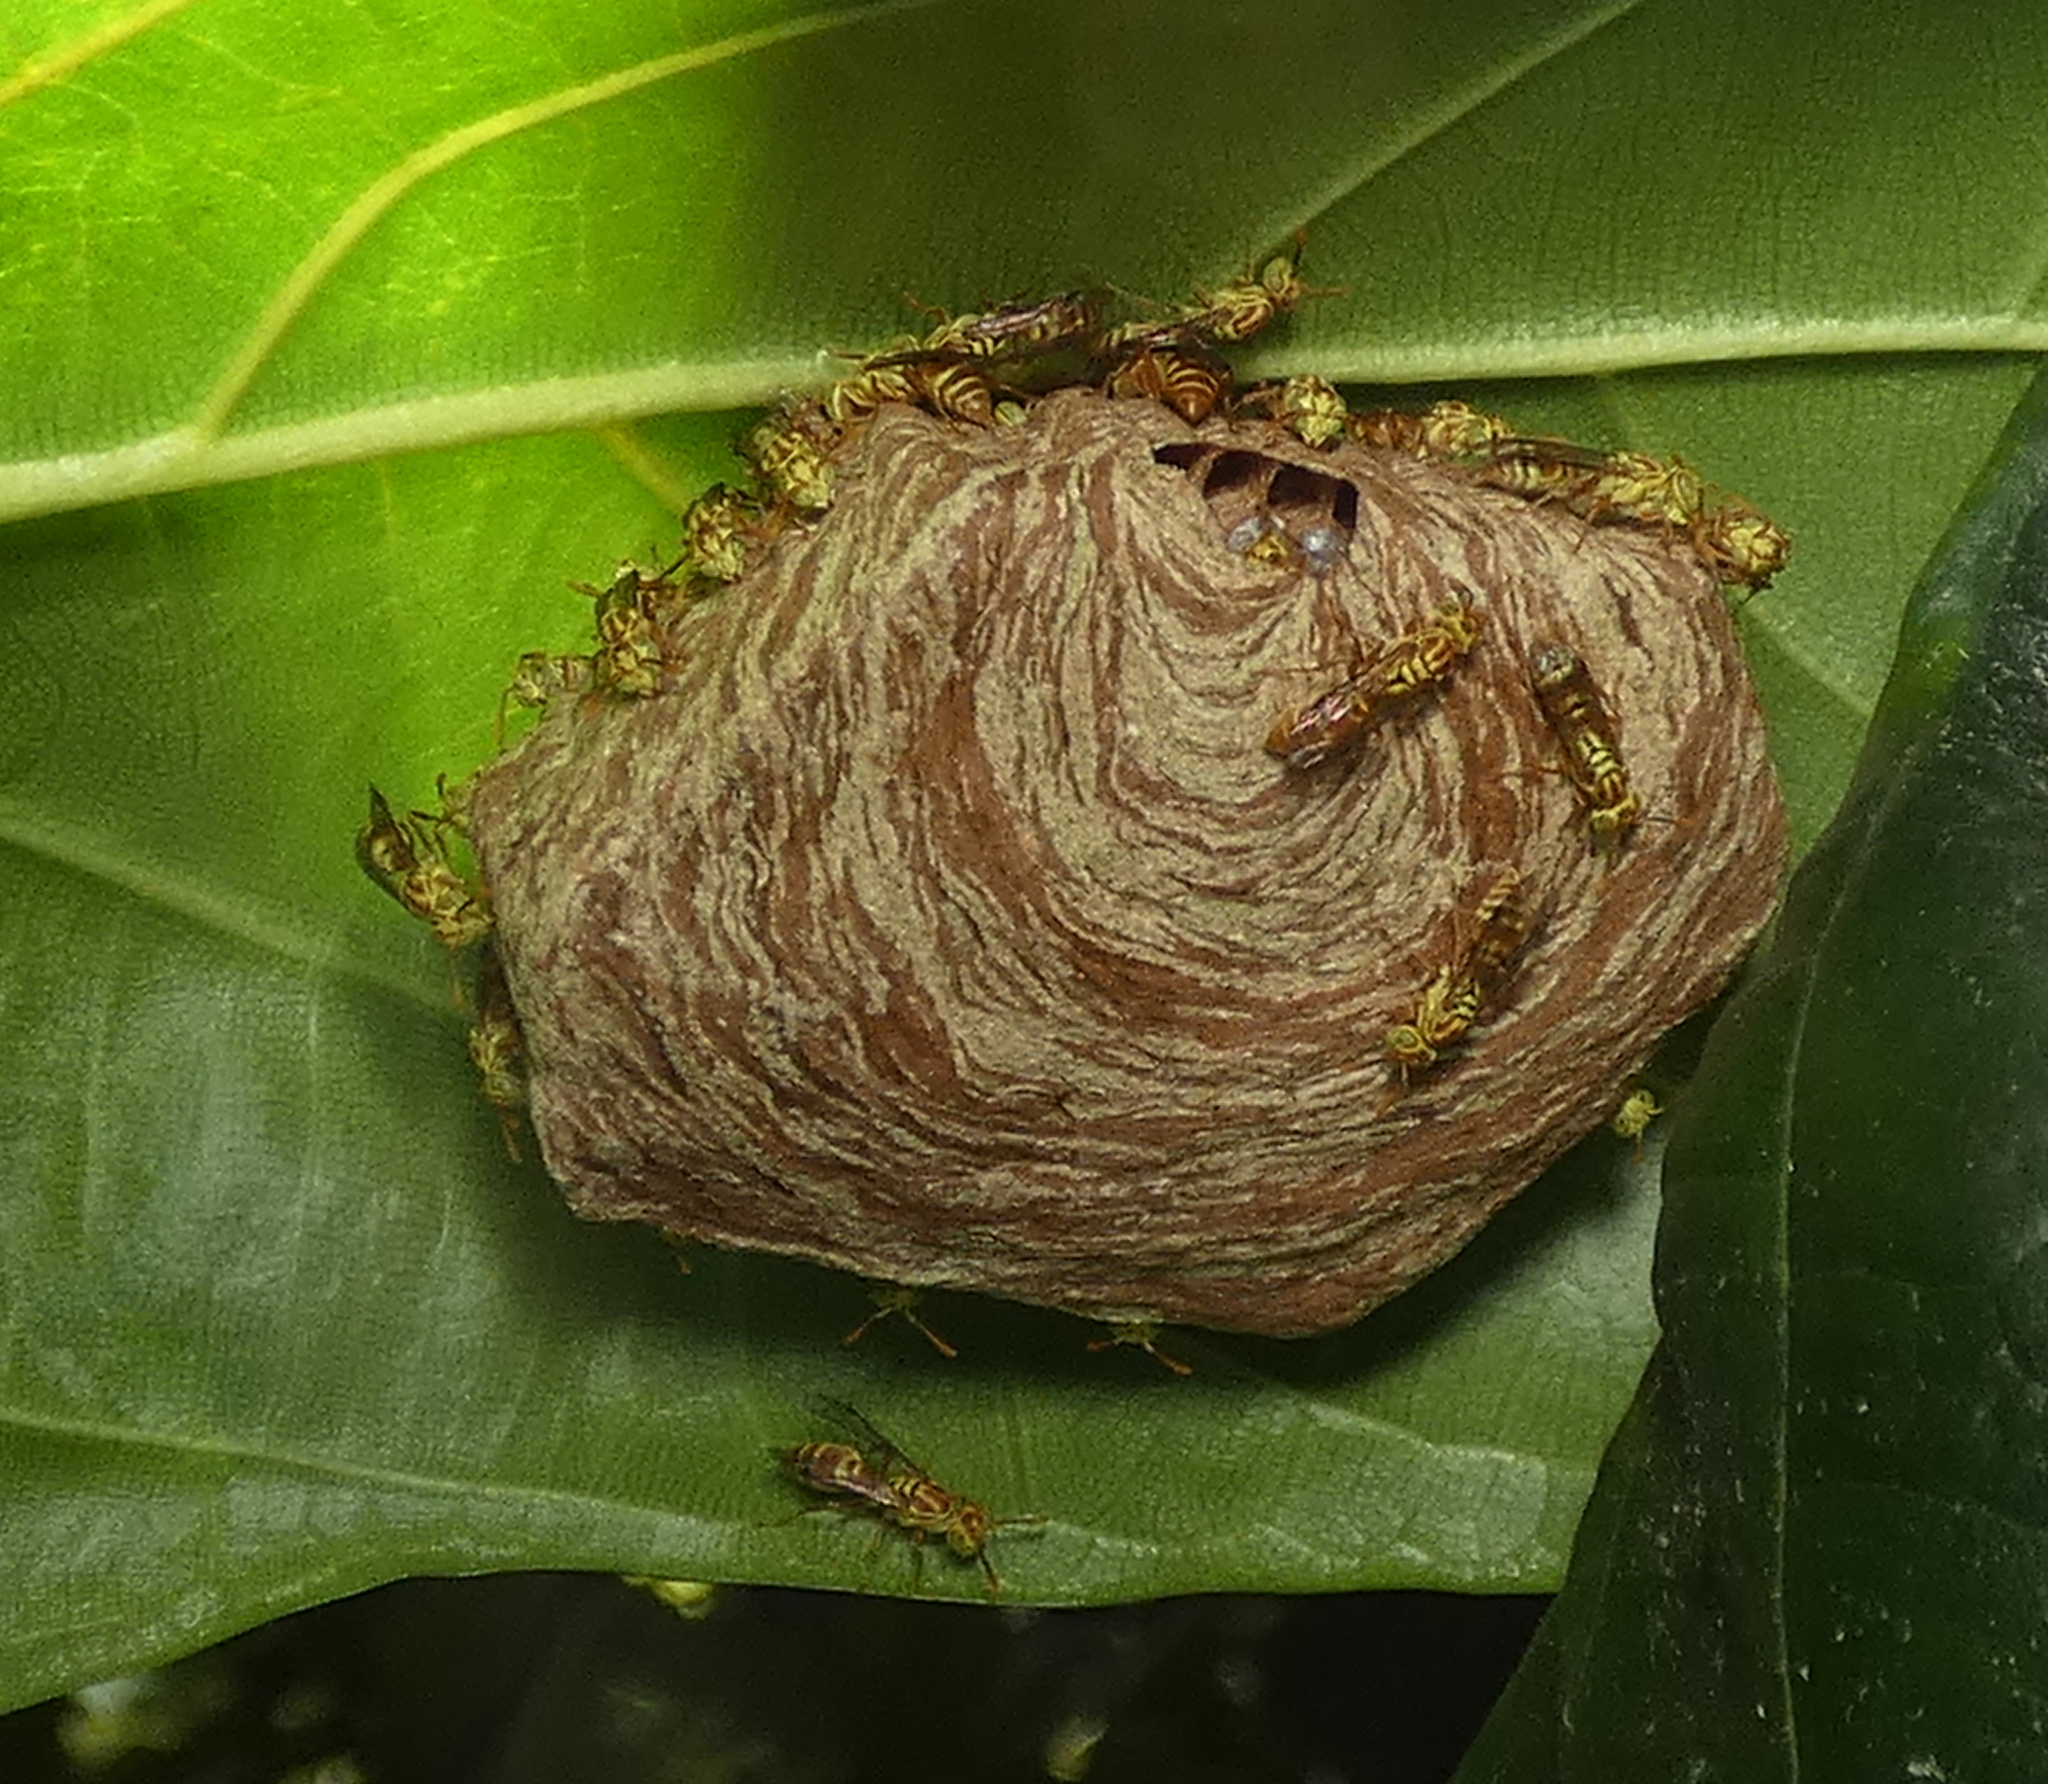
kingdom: Animalia
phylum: Arthropoda
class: Insecta
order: Hymenoptera
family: Vespidae
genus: Protopolybia
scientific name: Protopolybia potiguara
